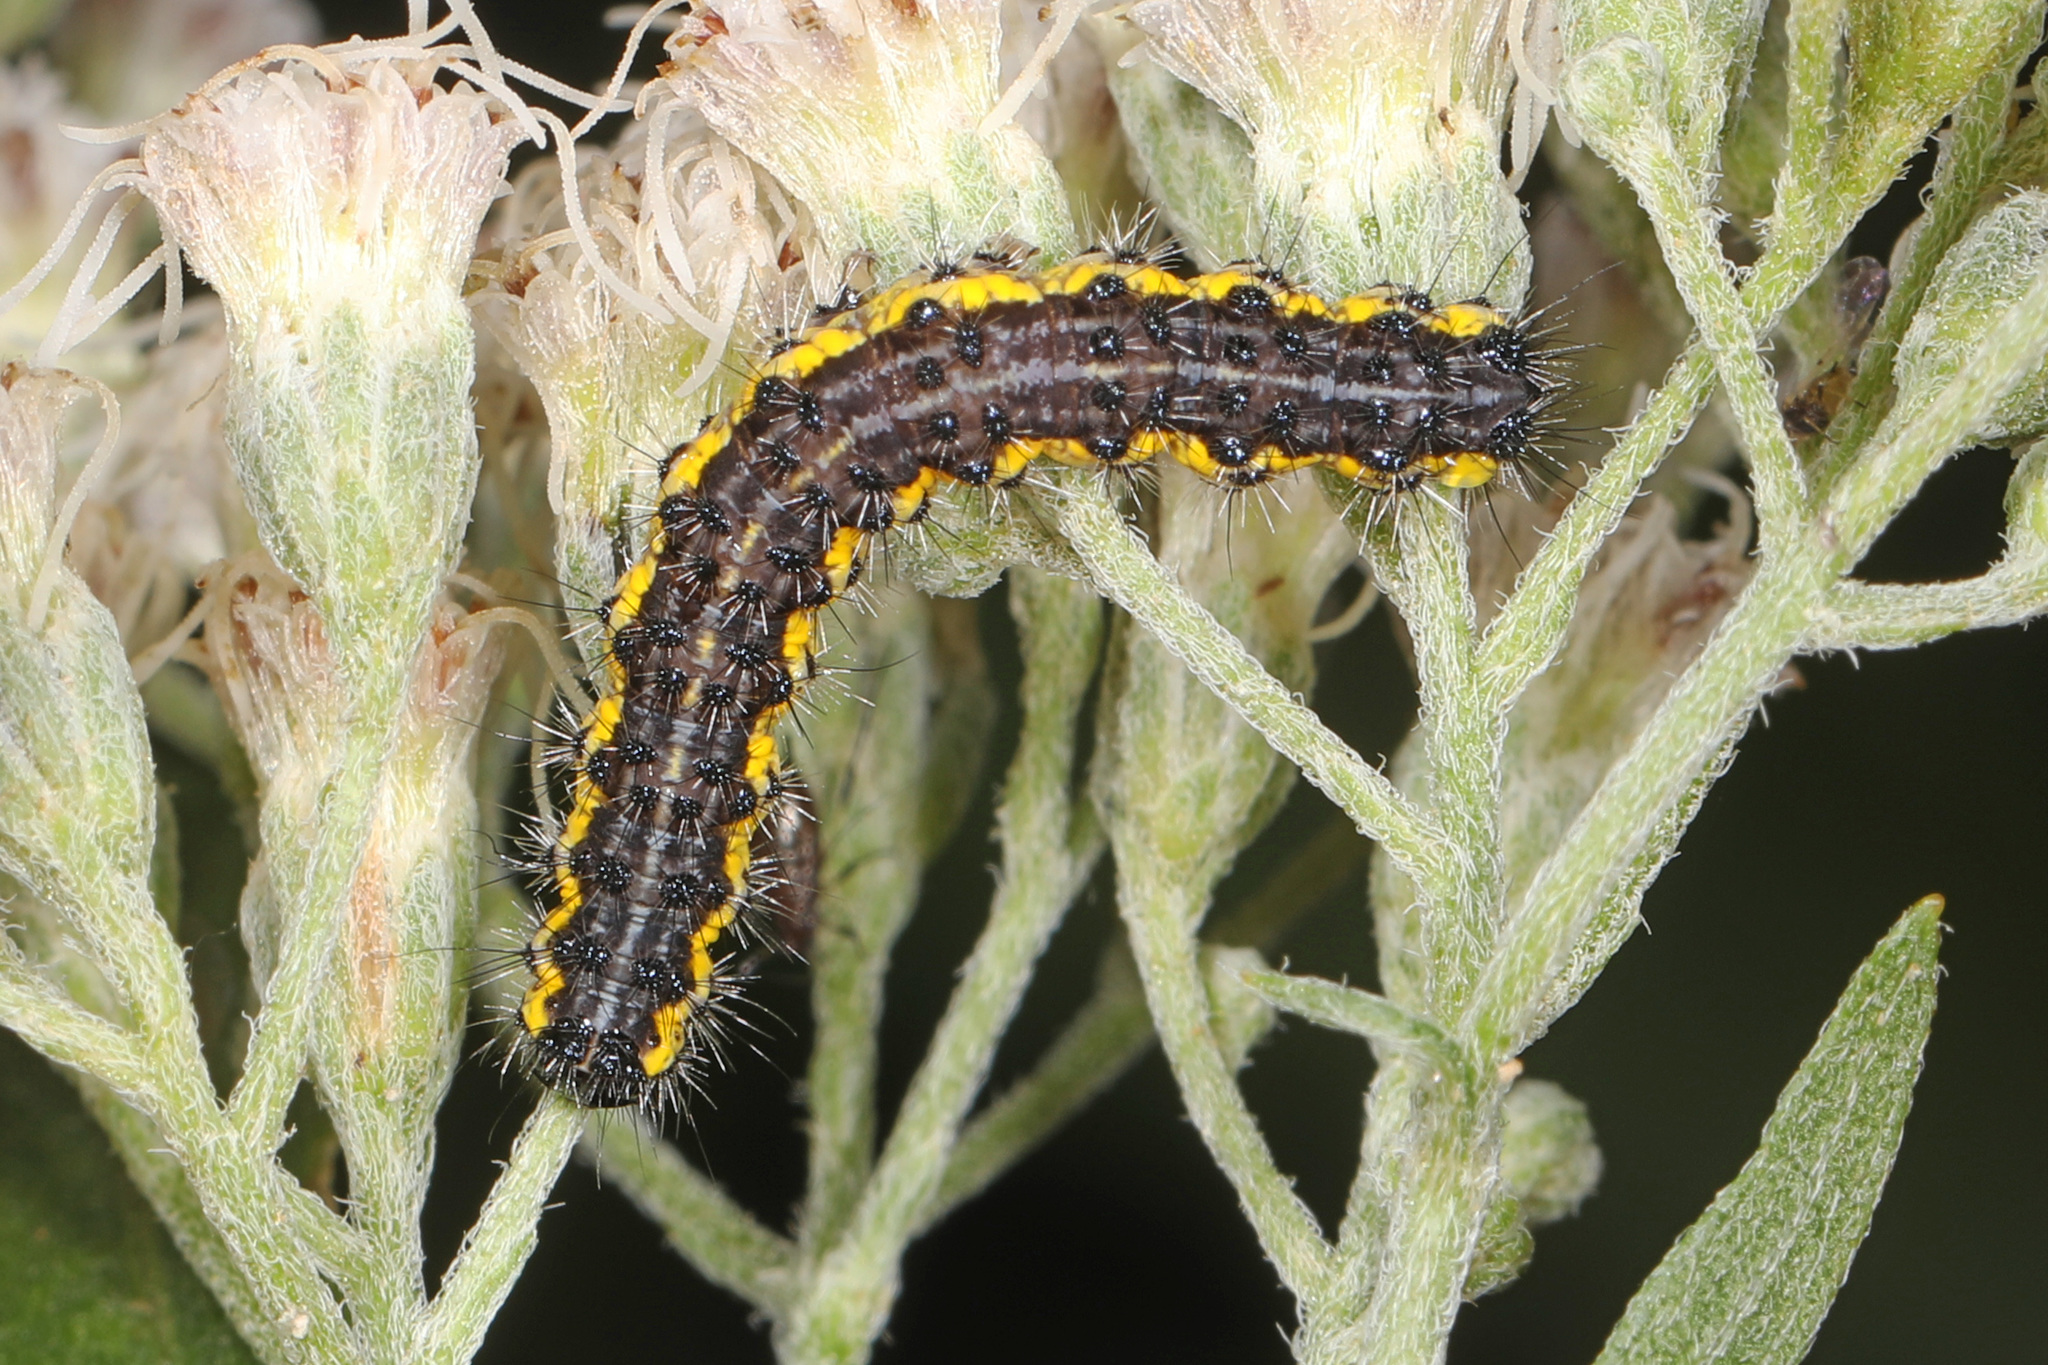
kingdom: Animalia
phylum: Arthropoda
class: Insecta
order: Lepidoptera
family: Erebidae
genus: Haploa
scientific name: Haploa contigua
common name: Neighbor moth
